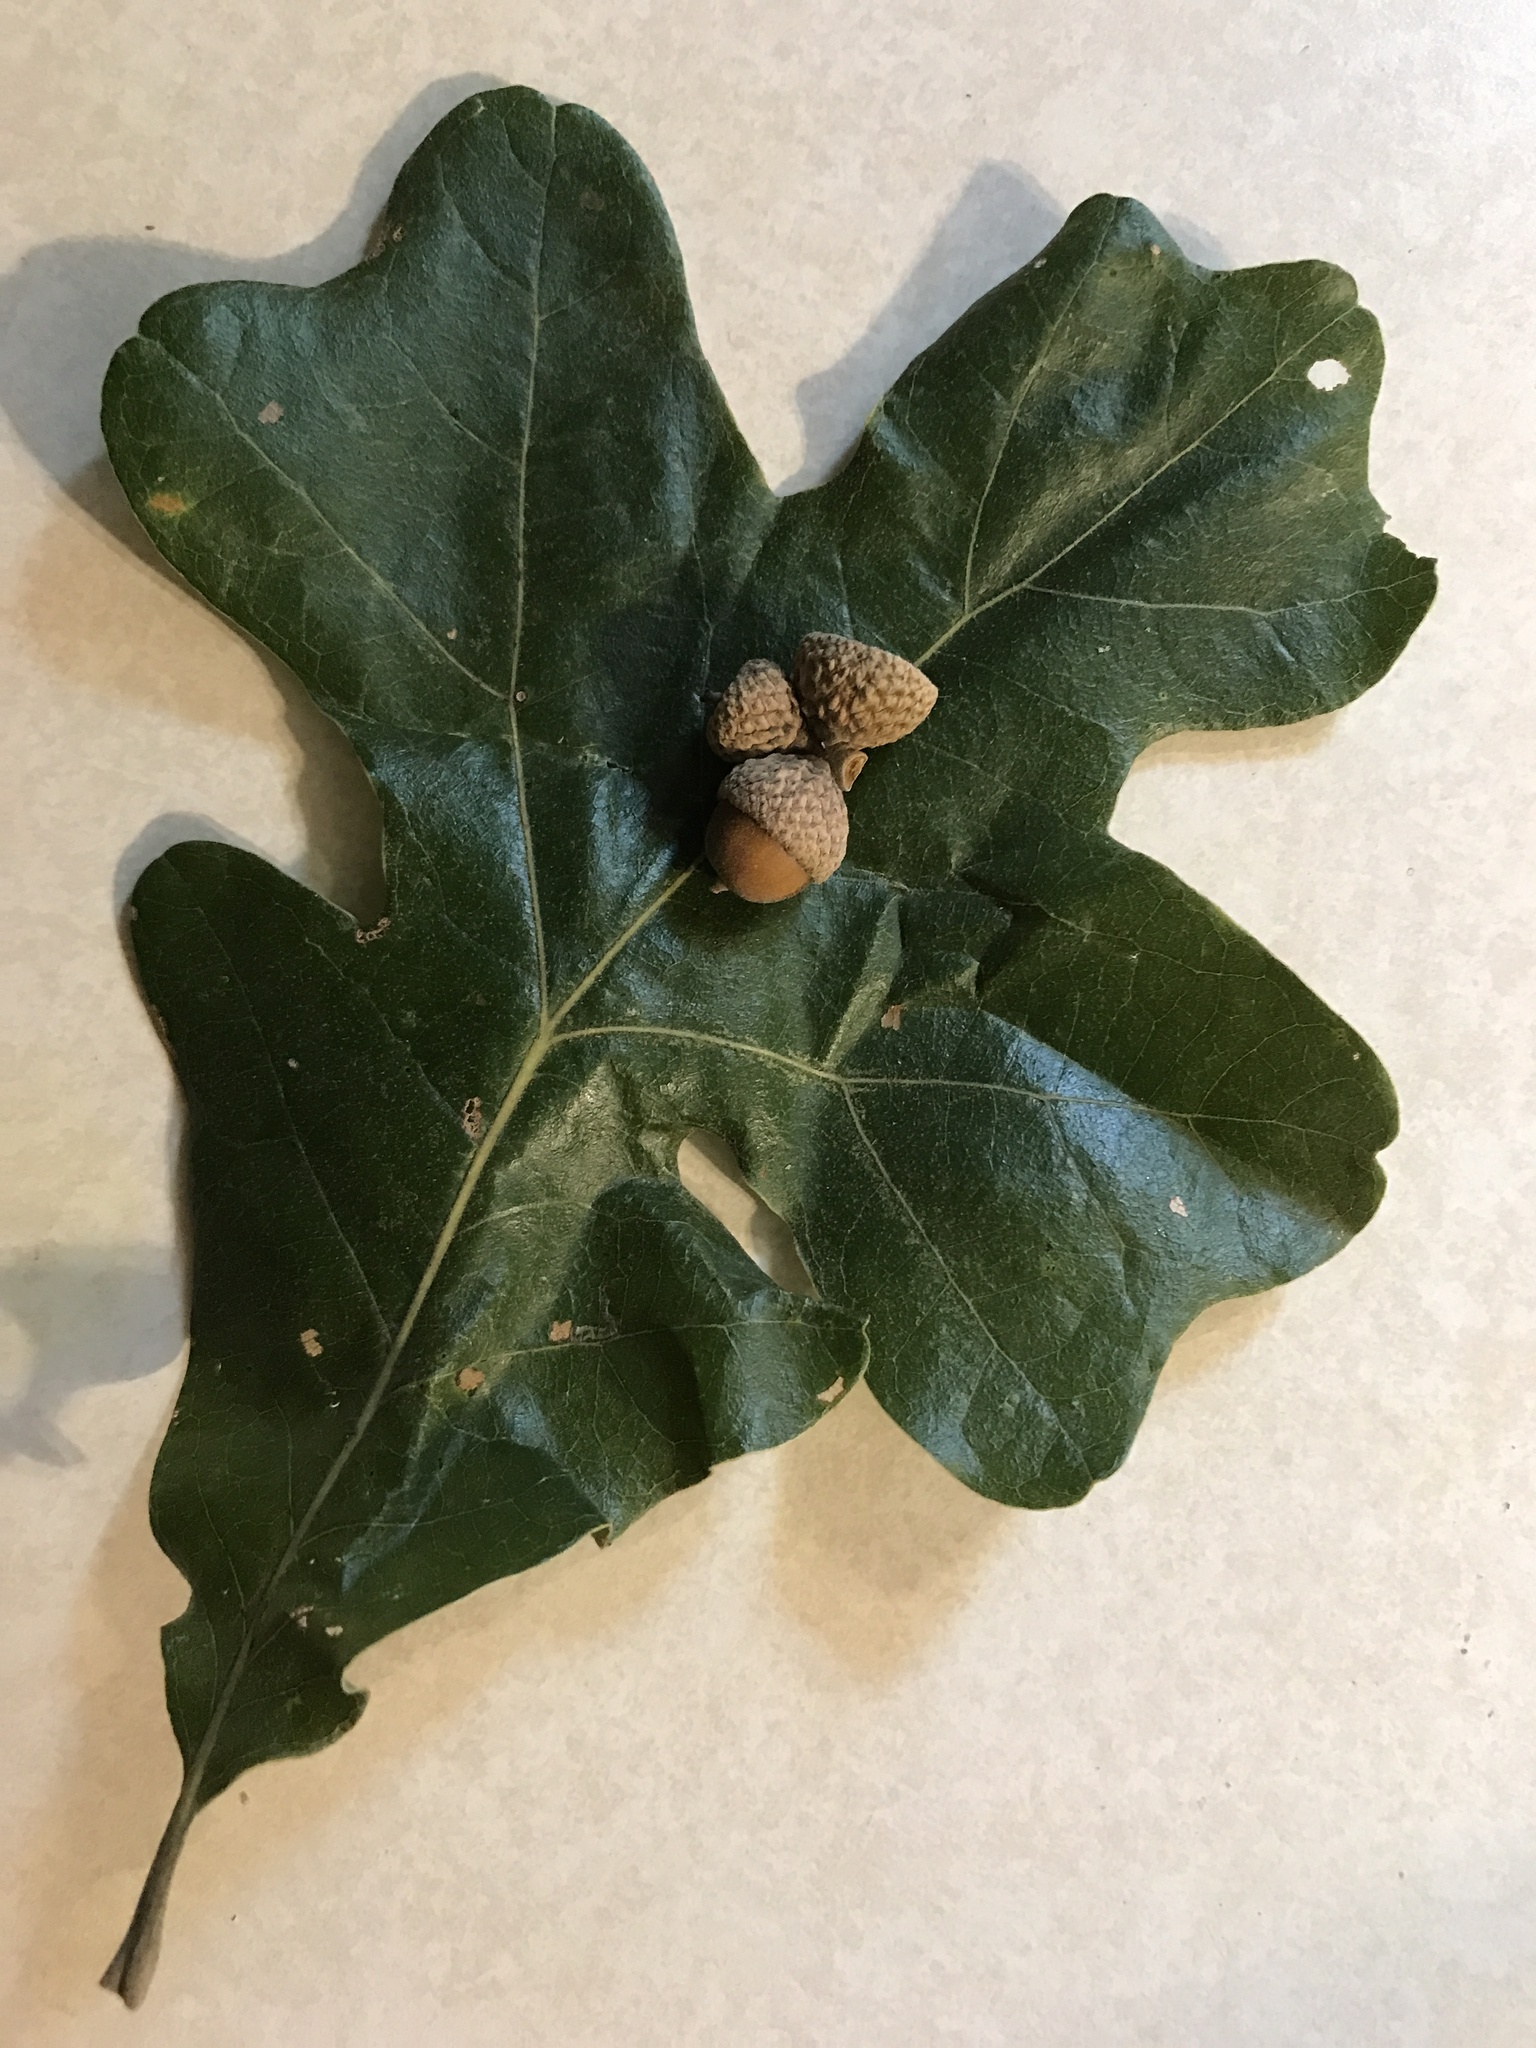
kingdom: Plantae
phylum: Tracheophyta
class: Magnoliopsida
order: Fagales
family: Fagaceae
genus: Quercus
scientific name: Quercus stellata
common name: Post oak
